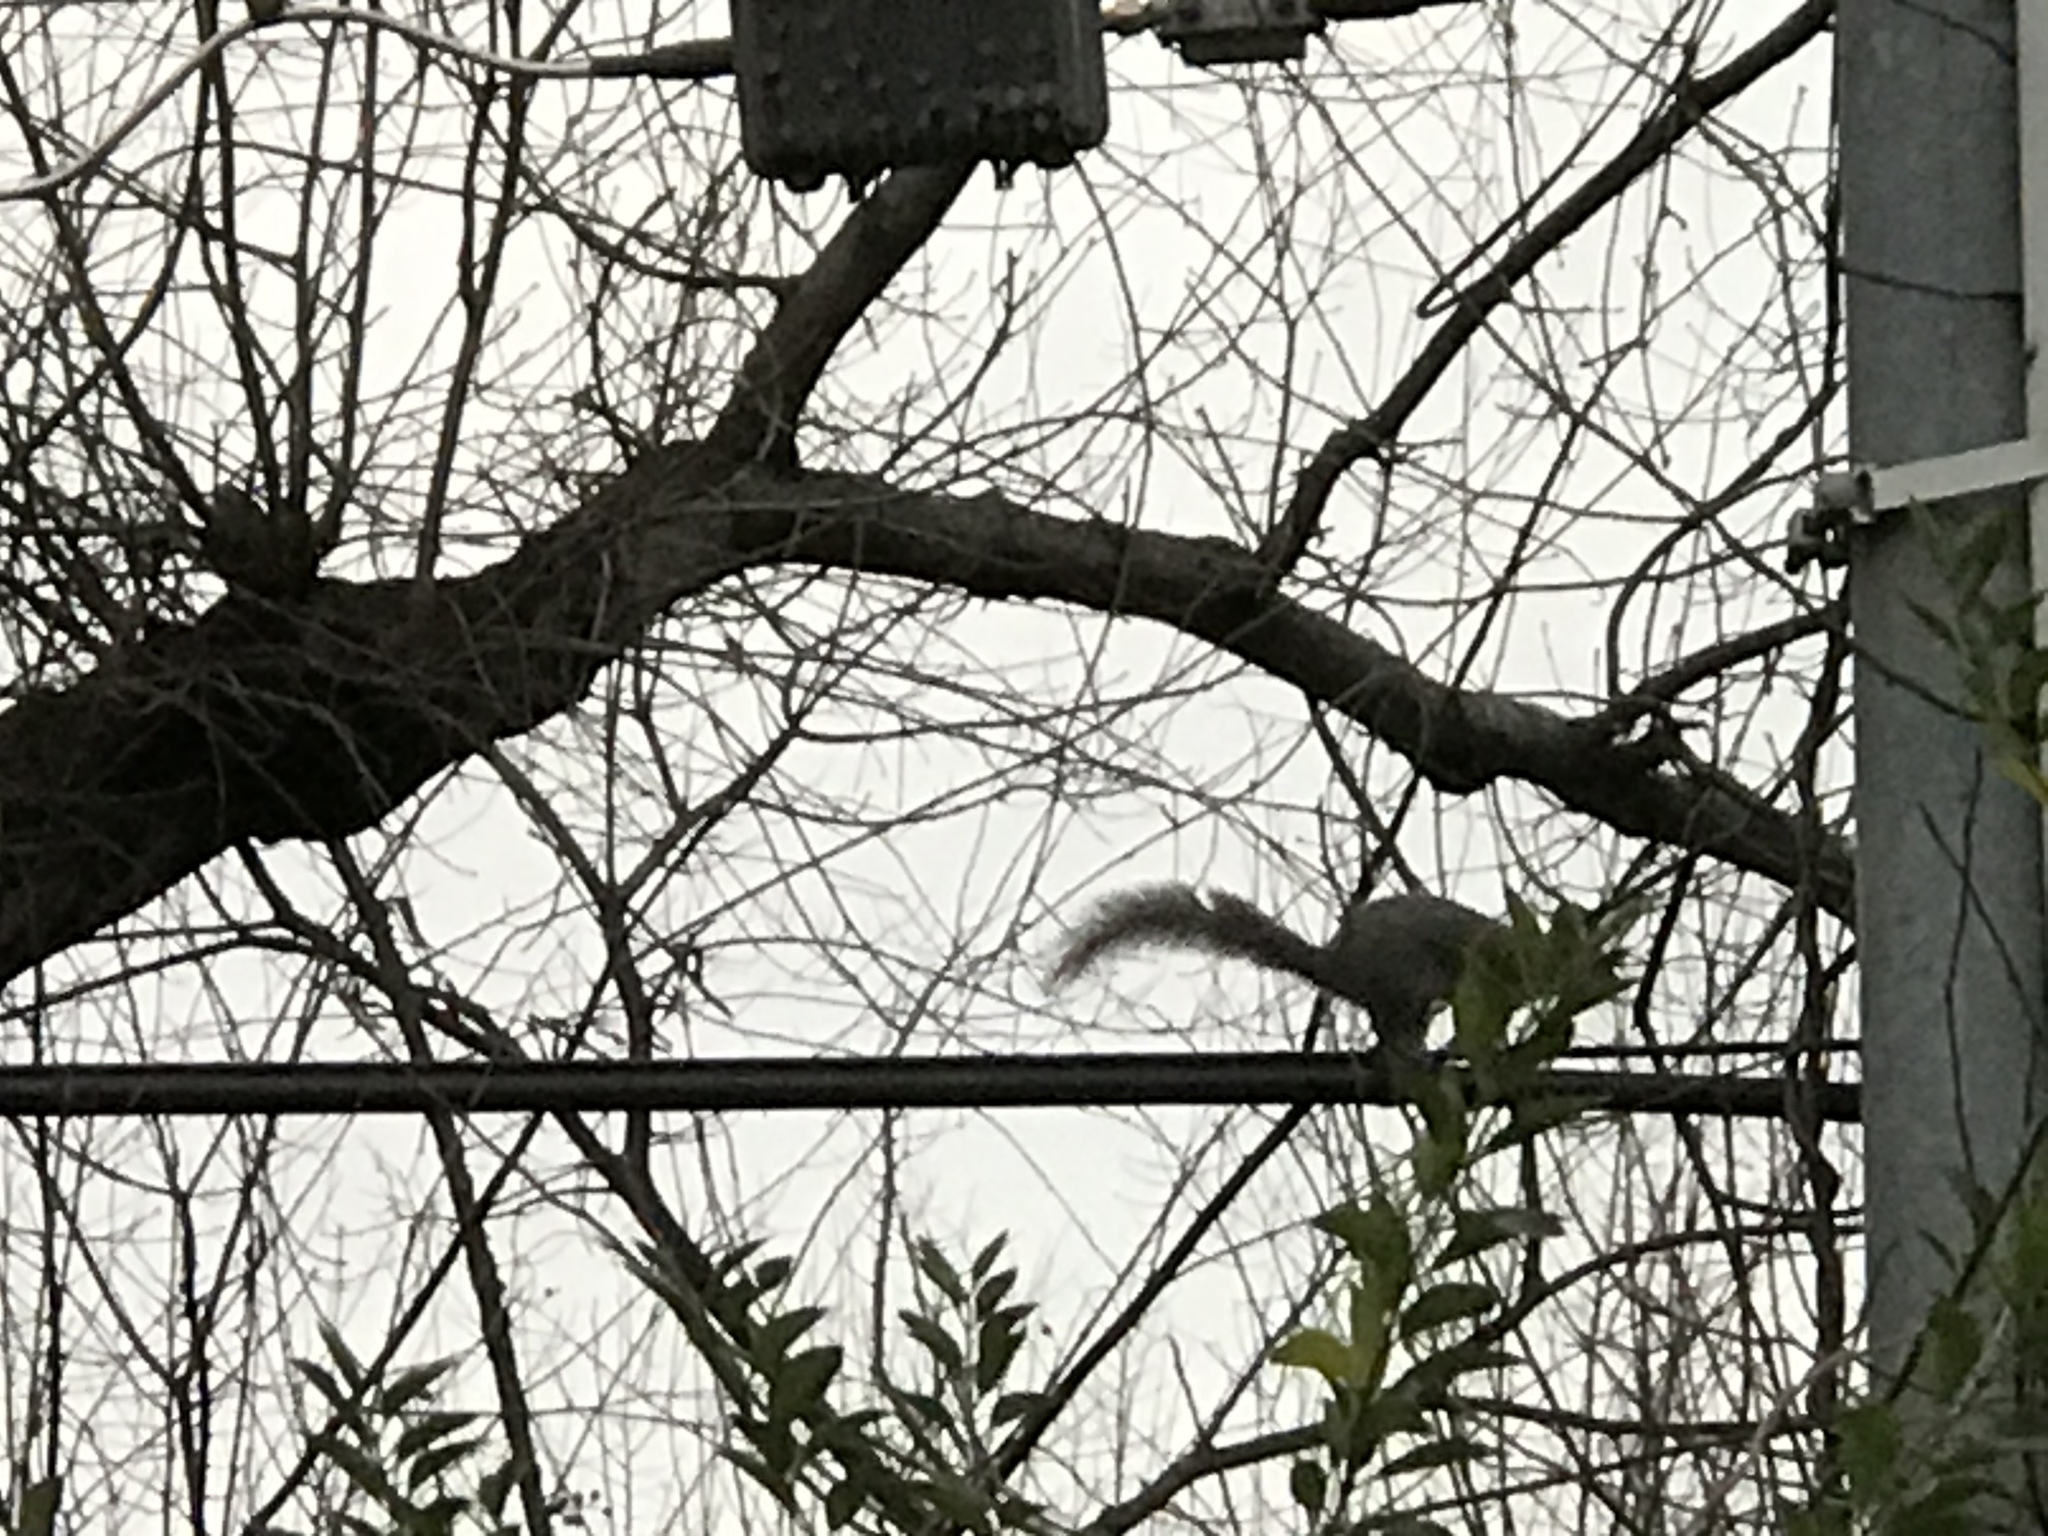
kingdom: Animalia
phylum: Chordata
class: Mammalia
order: Rodentia
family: Sciuridae
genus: Sciurus
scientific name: Sciurus carolinensis
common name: Eastern gray squirrel
